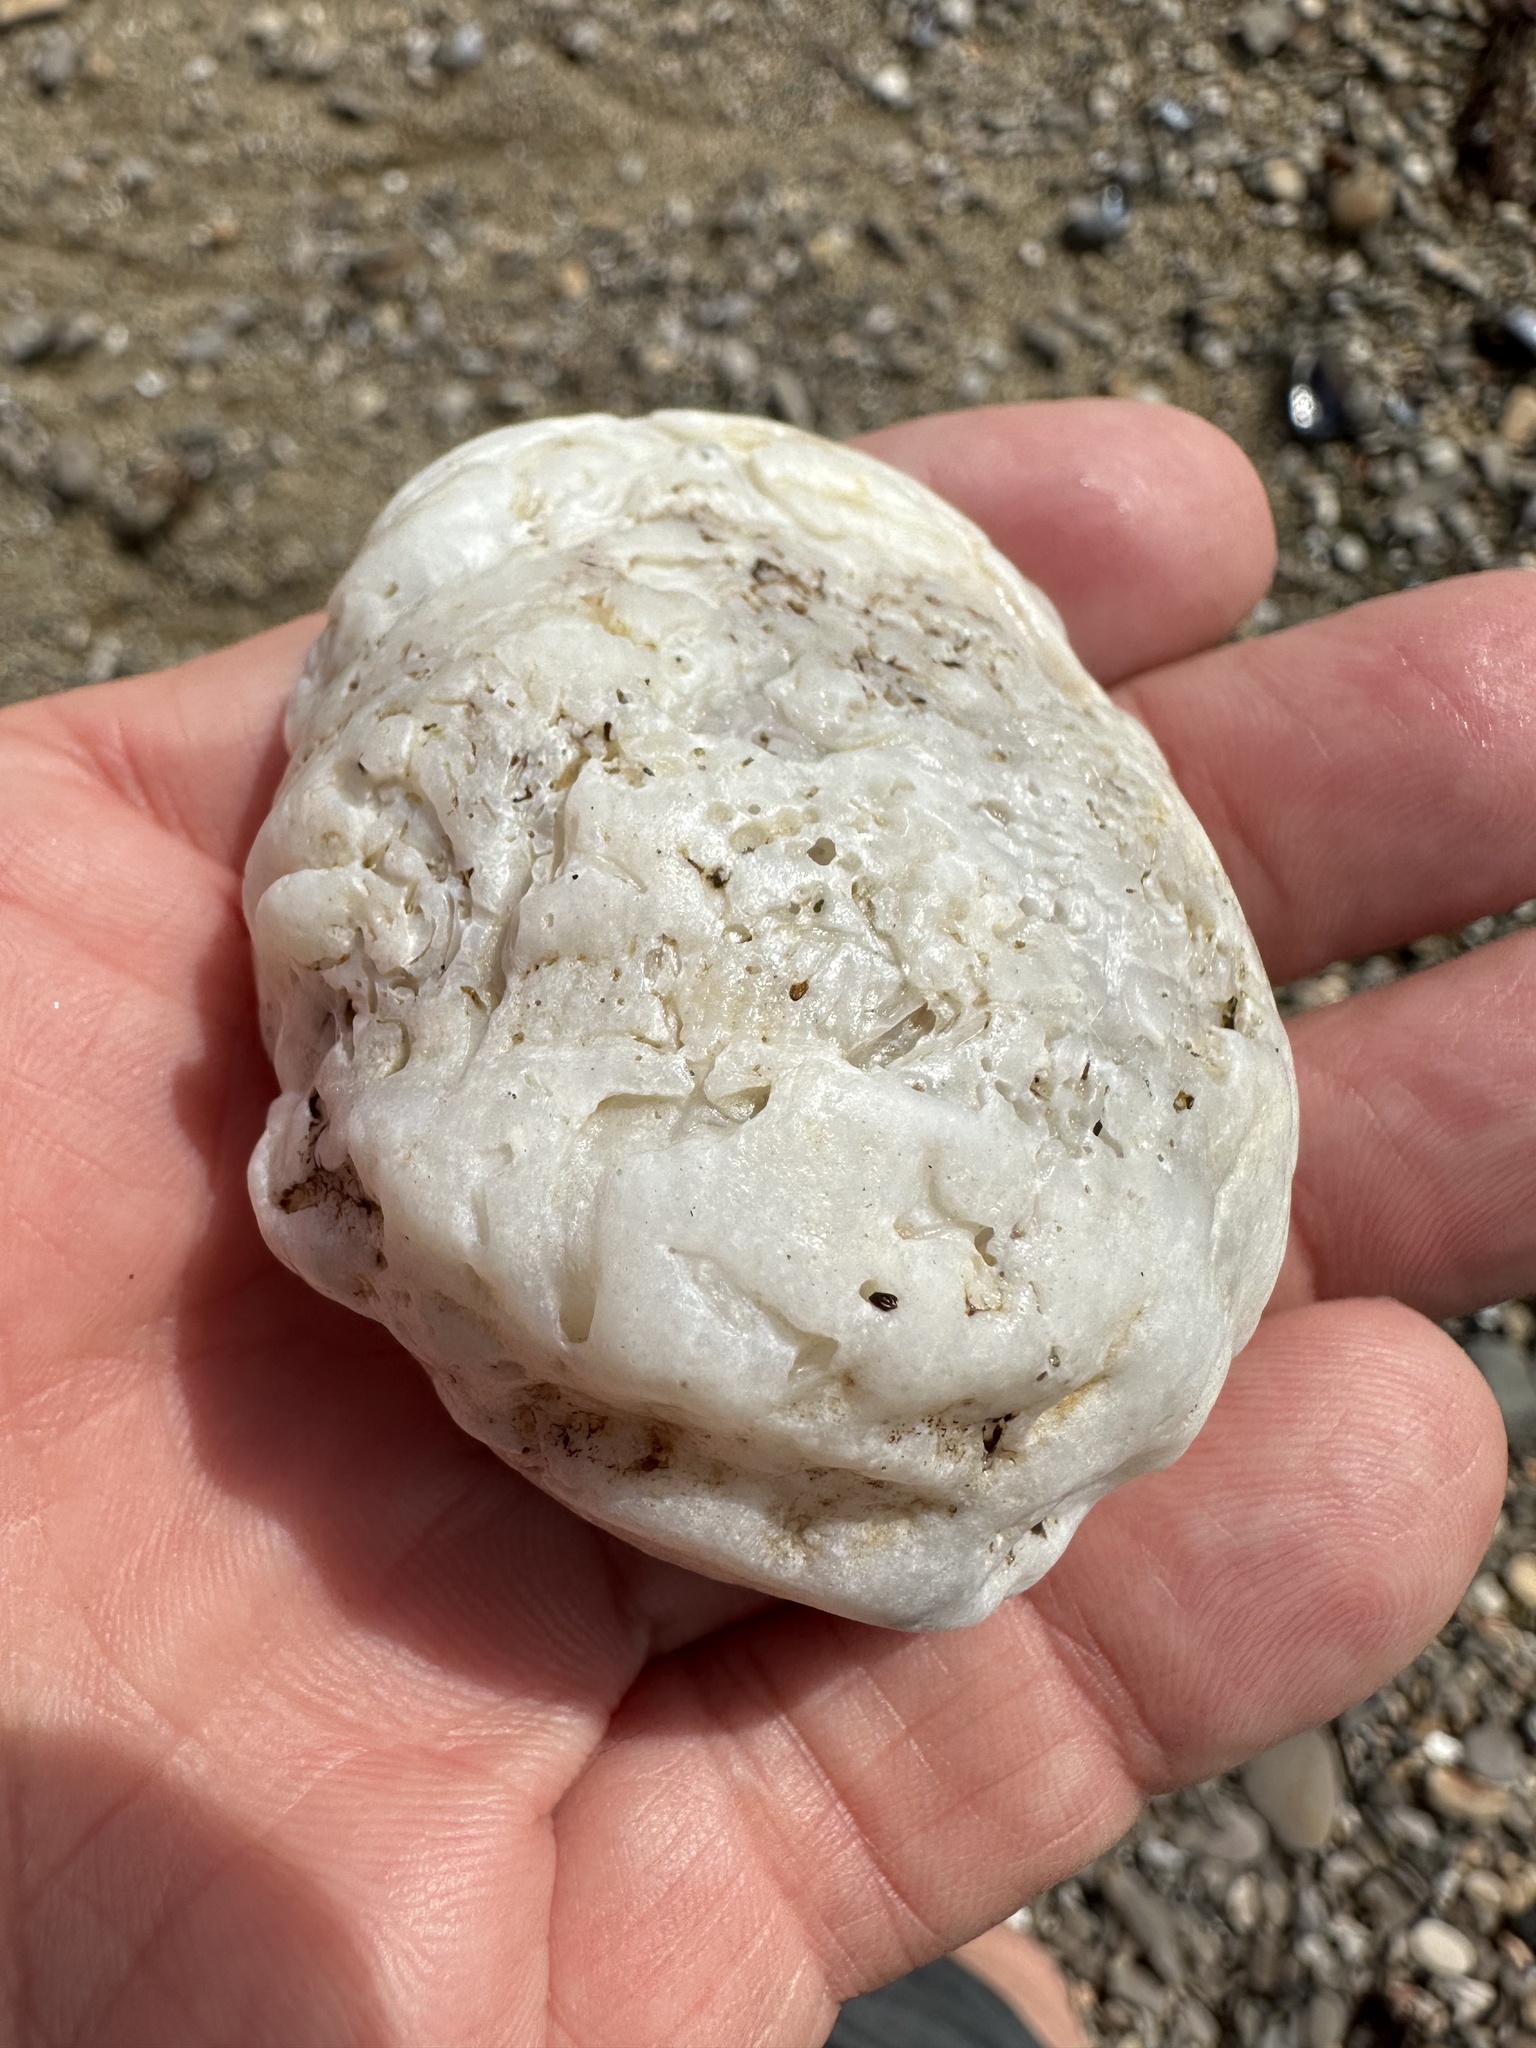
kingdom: Animalia
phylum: Mollusca
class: Bivalvia
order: Pectinida
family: Pectinidae
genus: Crassadoma
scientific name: Crassadoma gigantea
